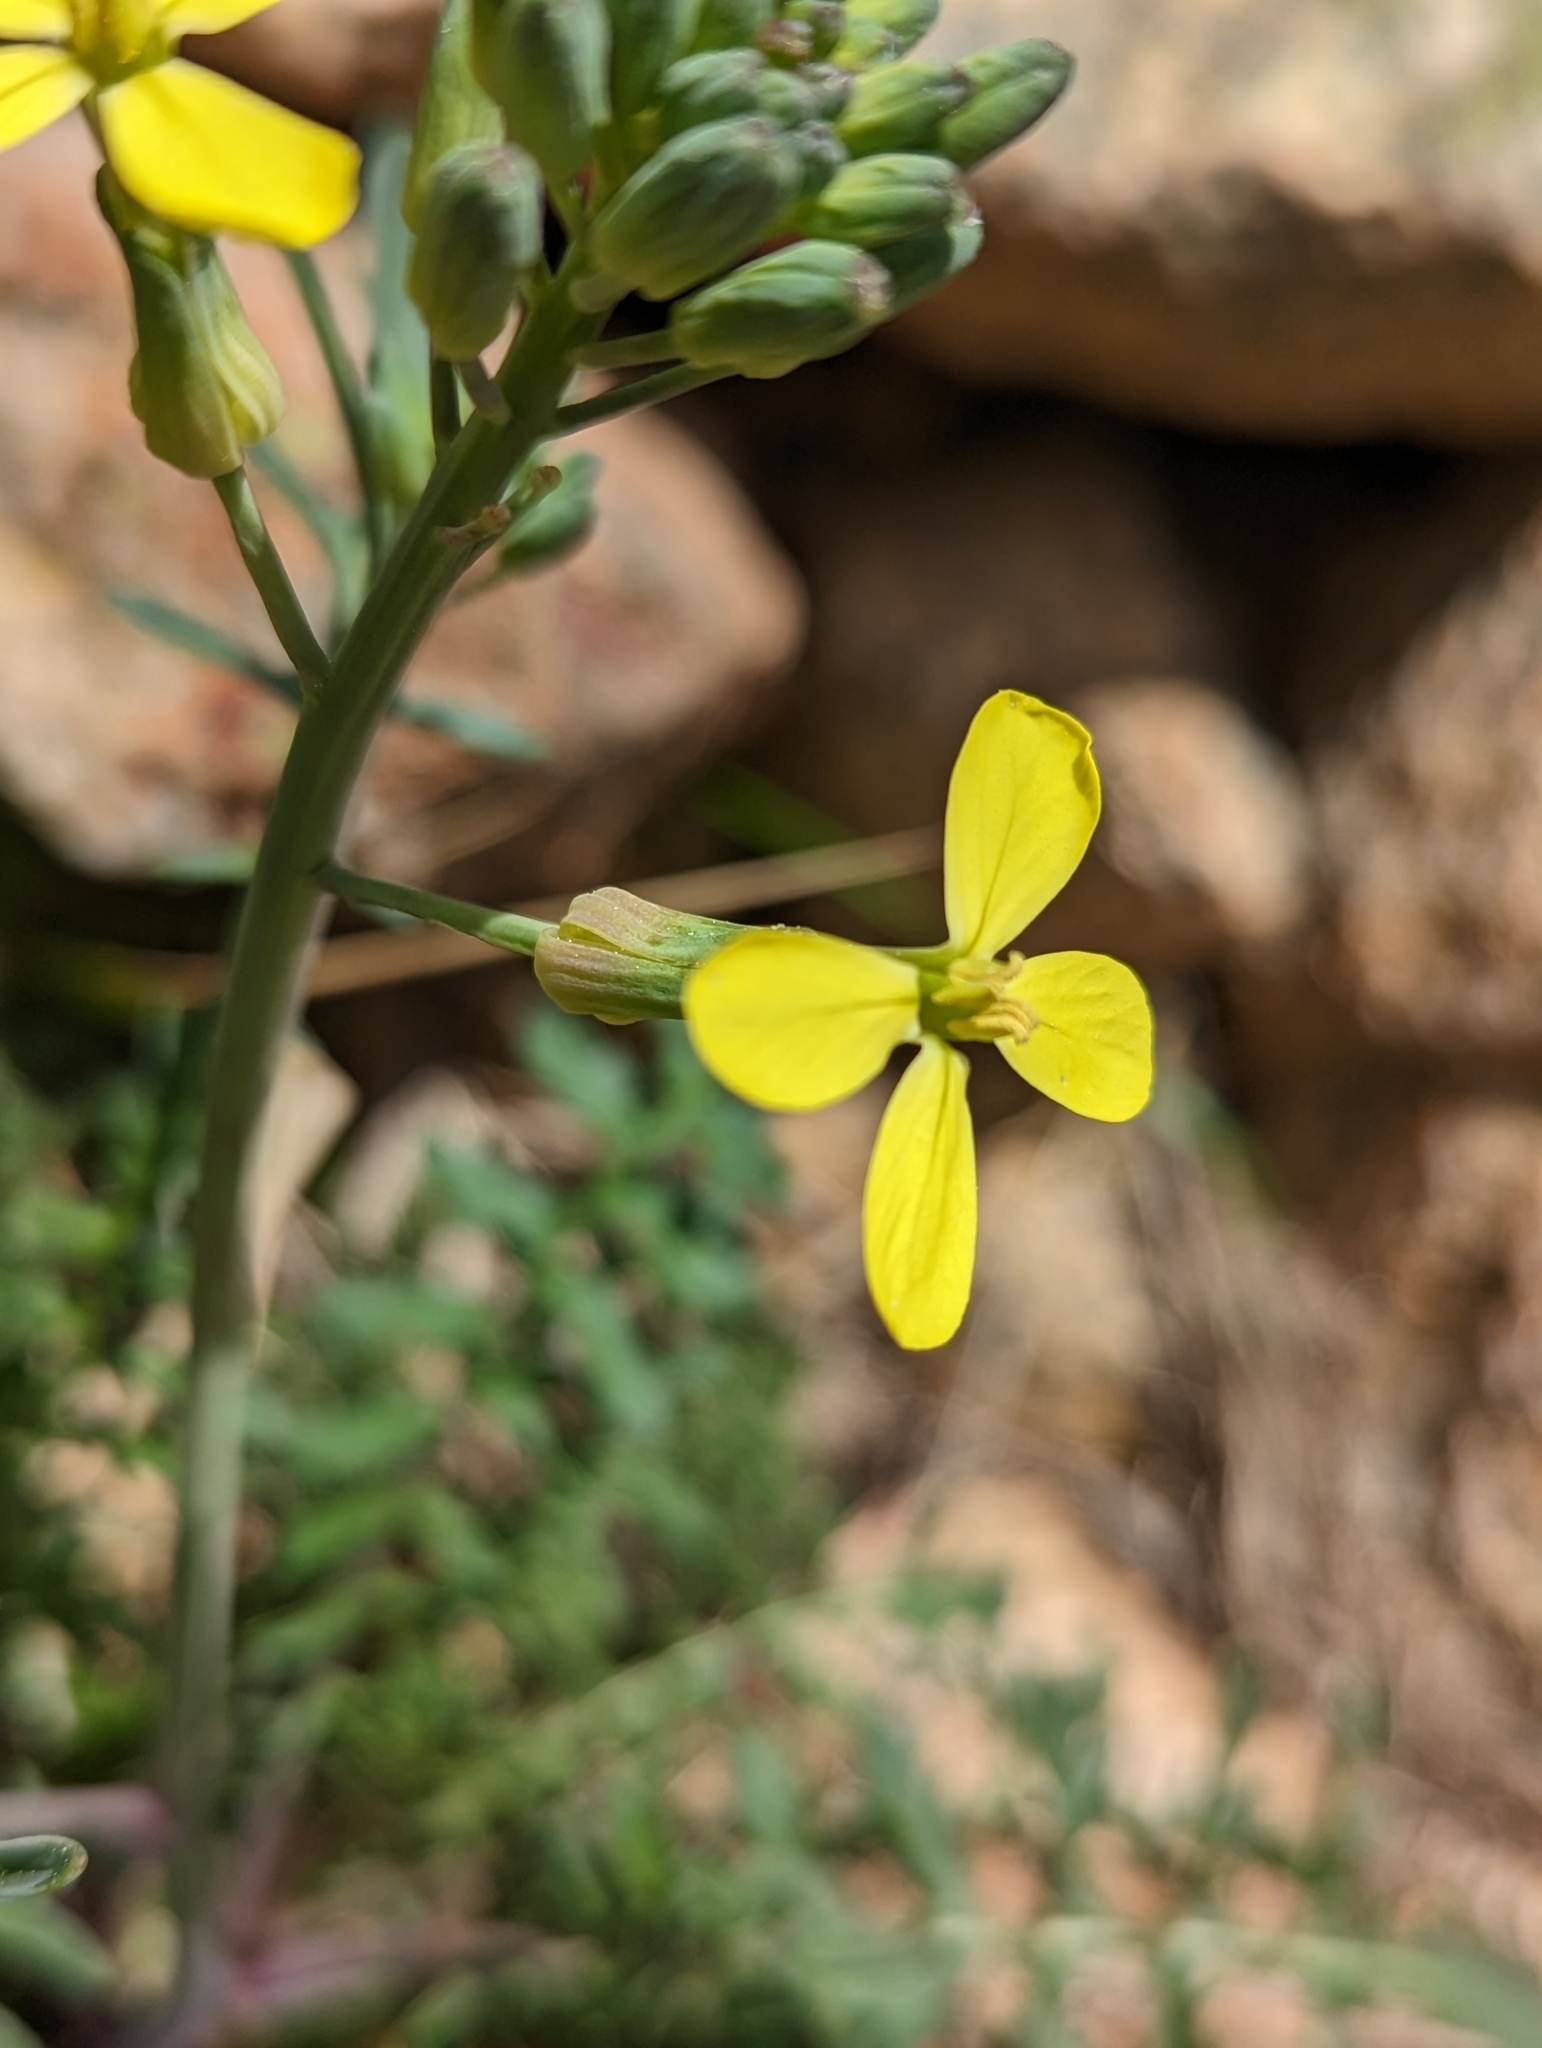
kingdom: Plantae
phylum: Tracheophyta
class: Magnoliopsida
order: Brassicales
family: Brassicaceae
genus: Coincya
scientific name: Coincya monensis
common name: Star-mustard
